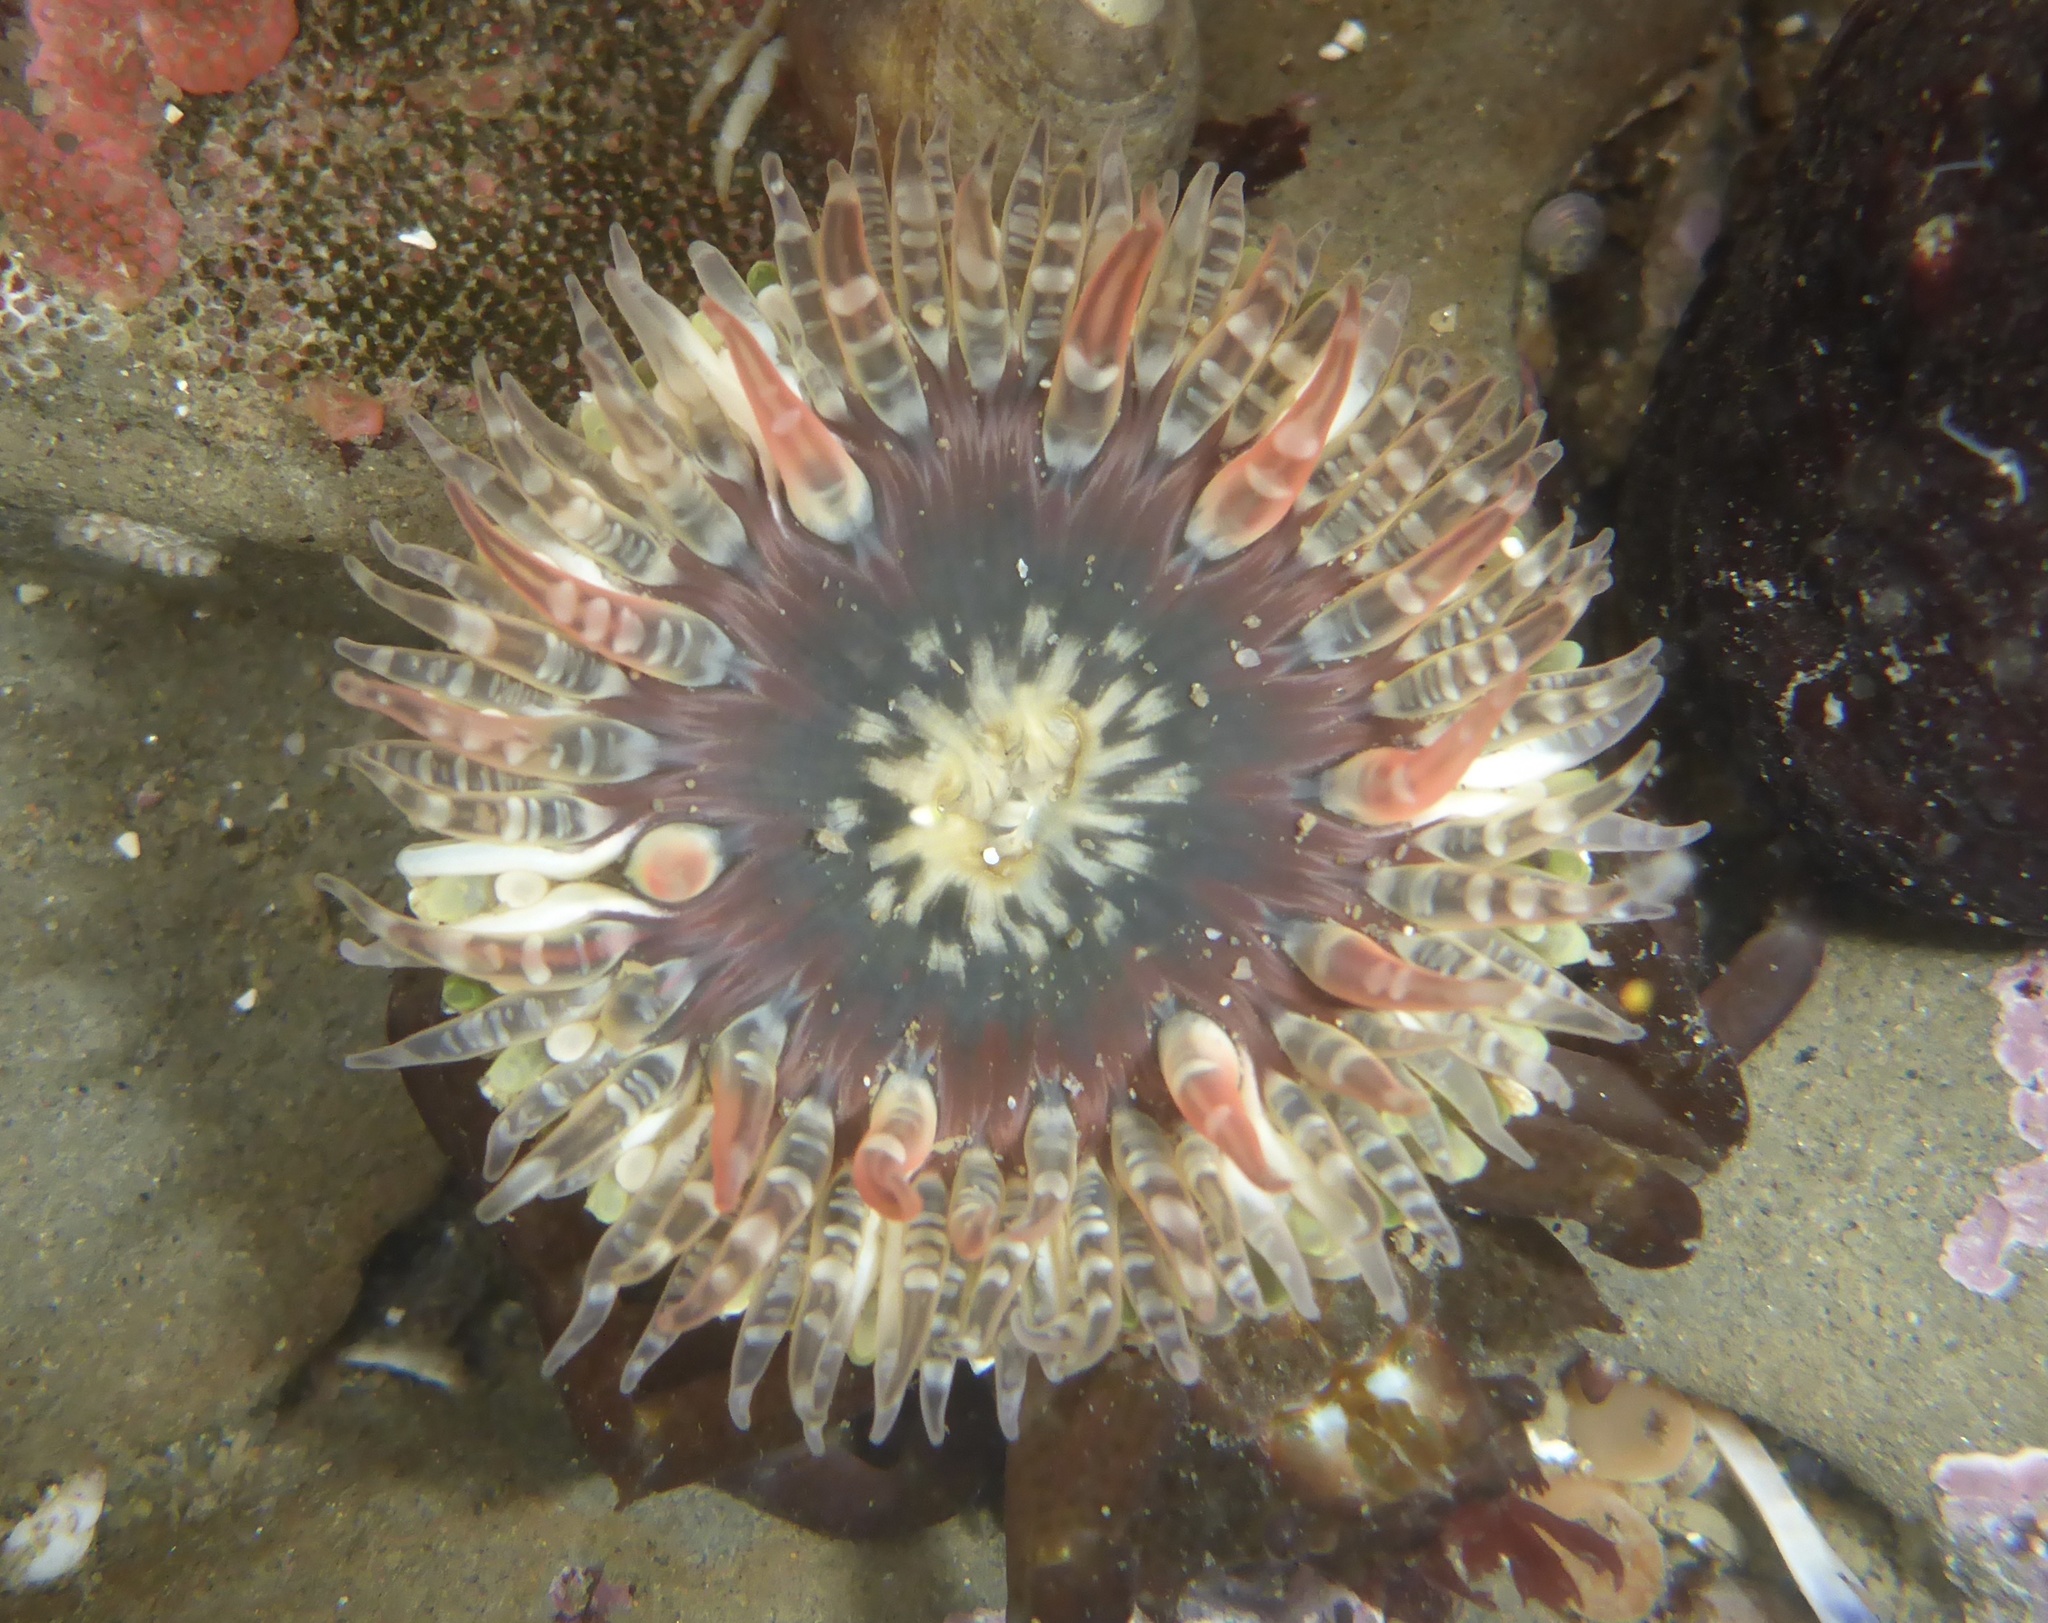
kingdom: Animalia
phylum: Cnidaria
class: Anthozoa
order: Actiniaria
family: Actiniidae
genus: Anthopleura
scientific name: Anthopleura artemisia
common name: Buried sea anemone
